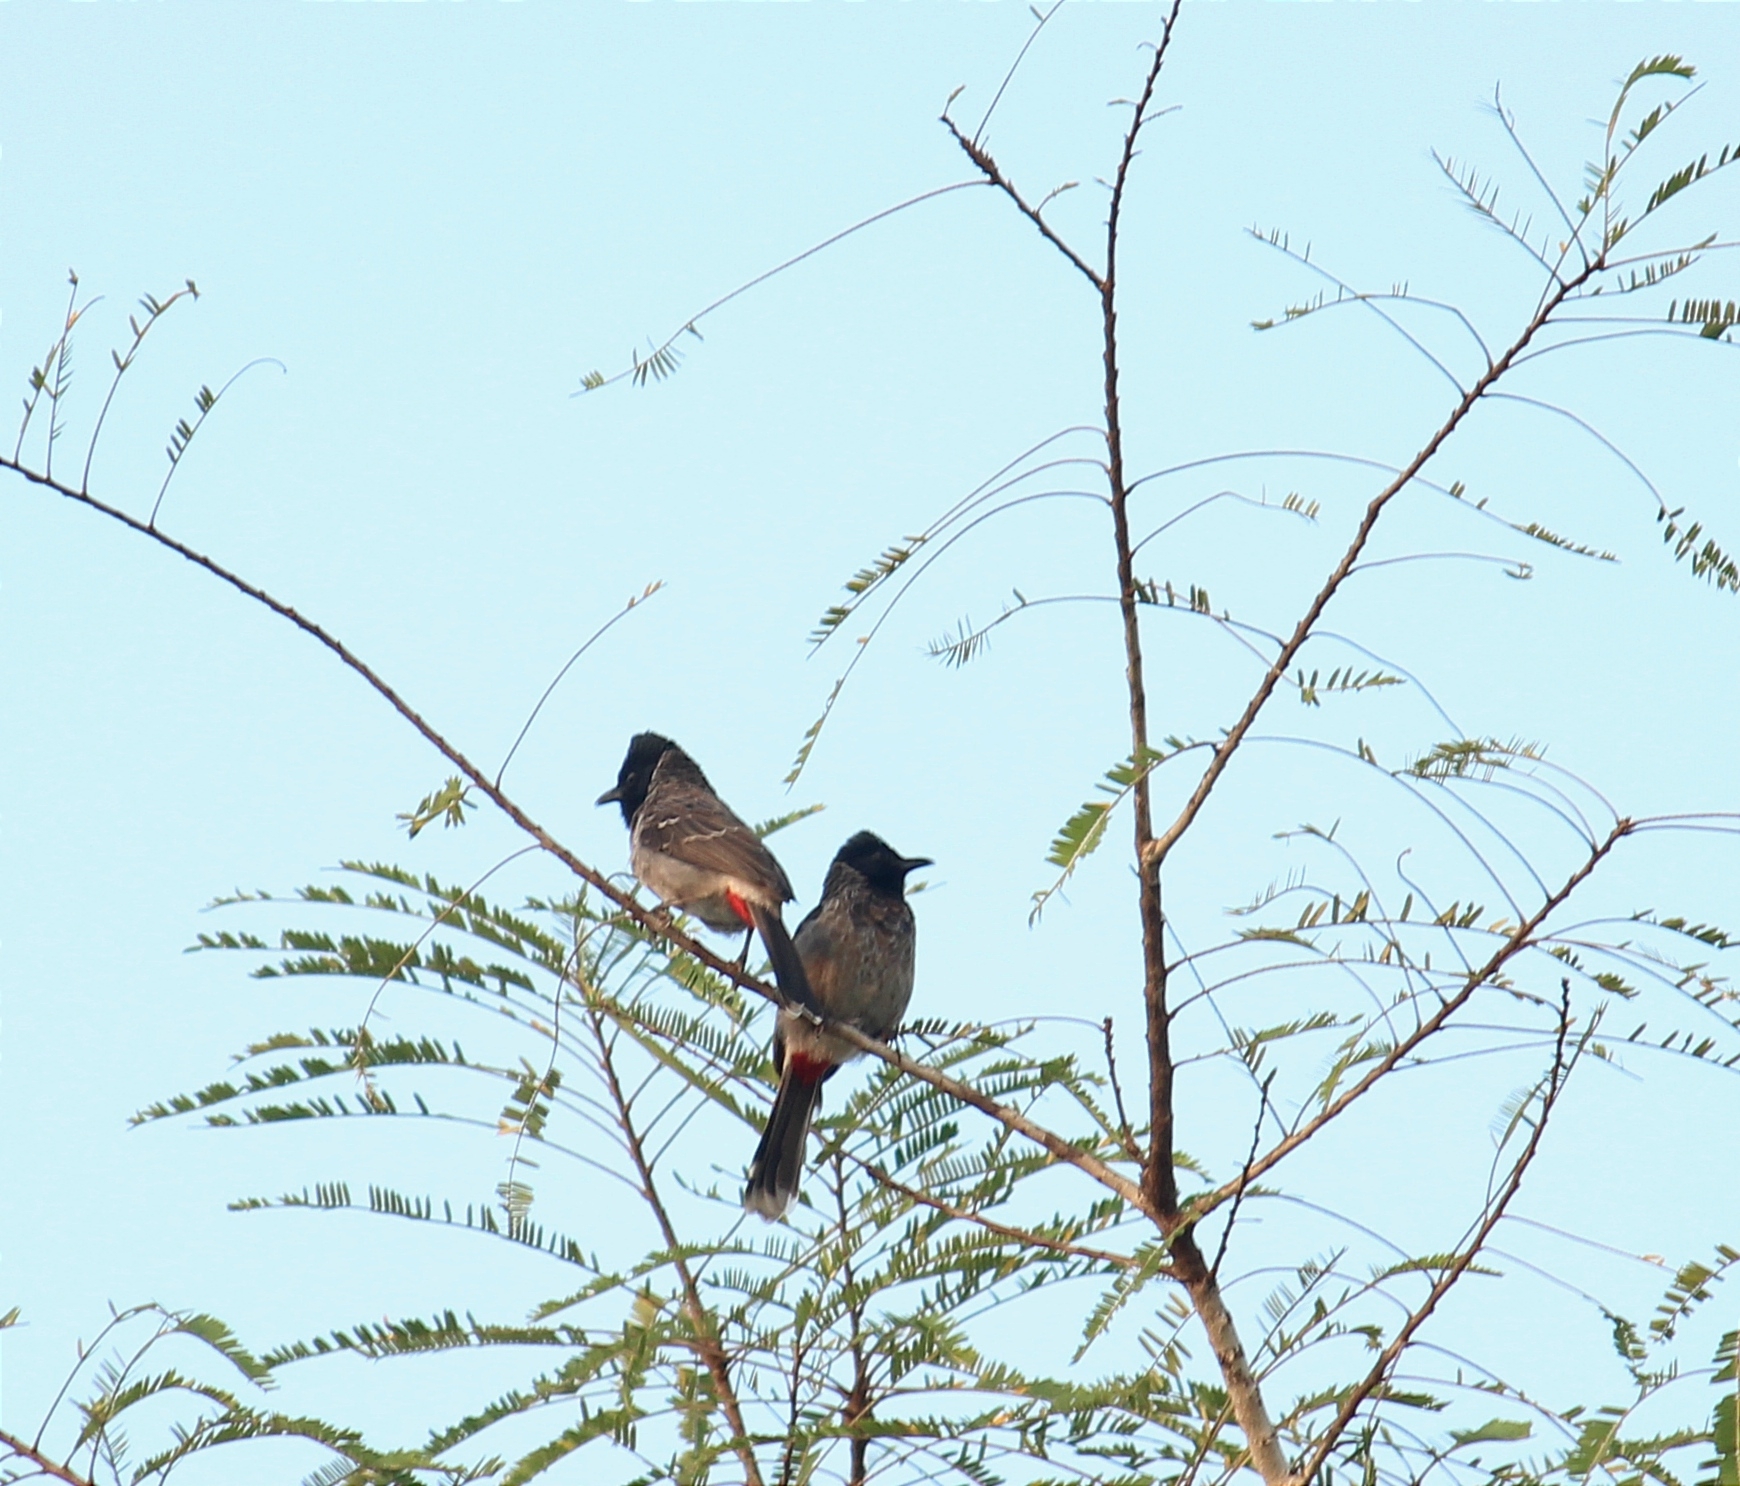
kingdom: Animalia
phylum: Chordata
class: Aves
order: Passeriformes
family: Pycnonotidae
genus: Pycnonotus
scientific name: Pycnonotus cafer
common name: Red-vented bulbul
